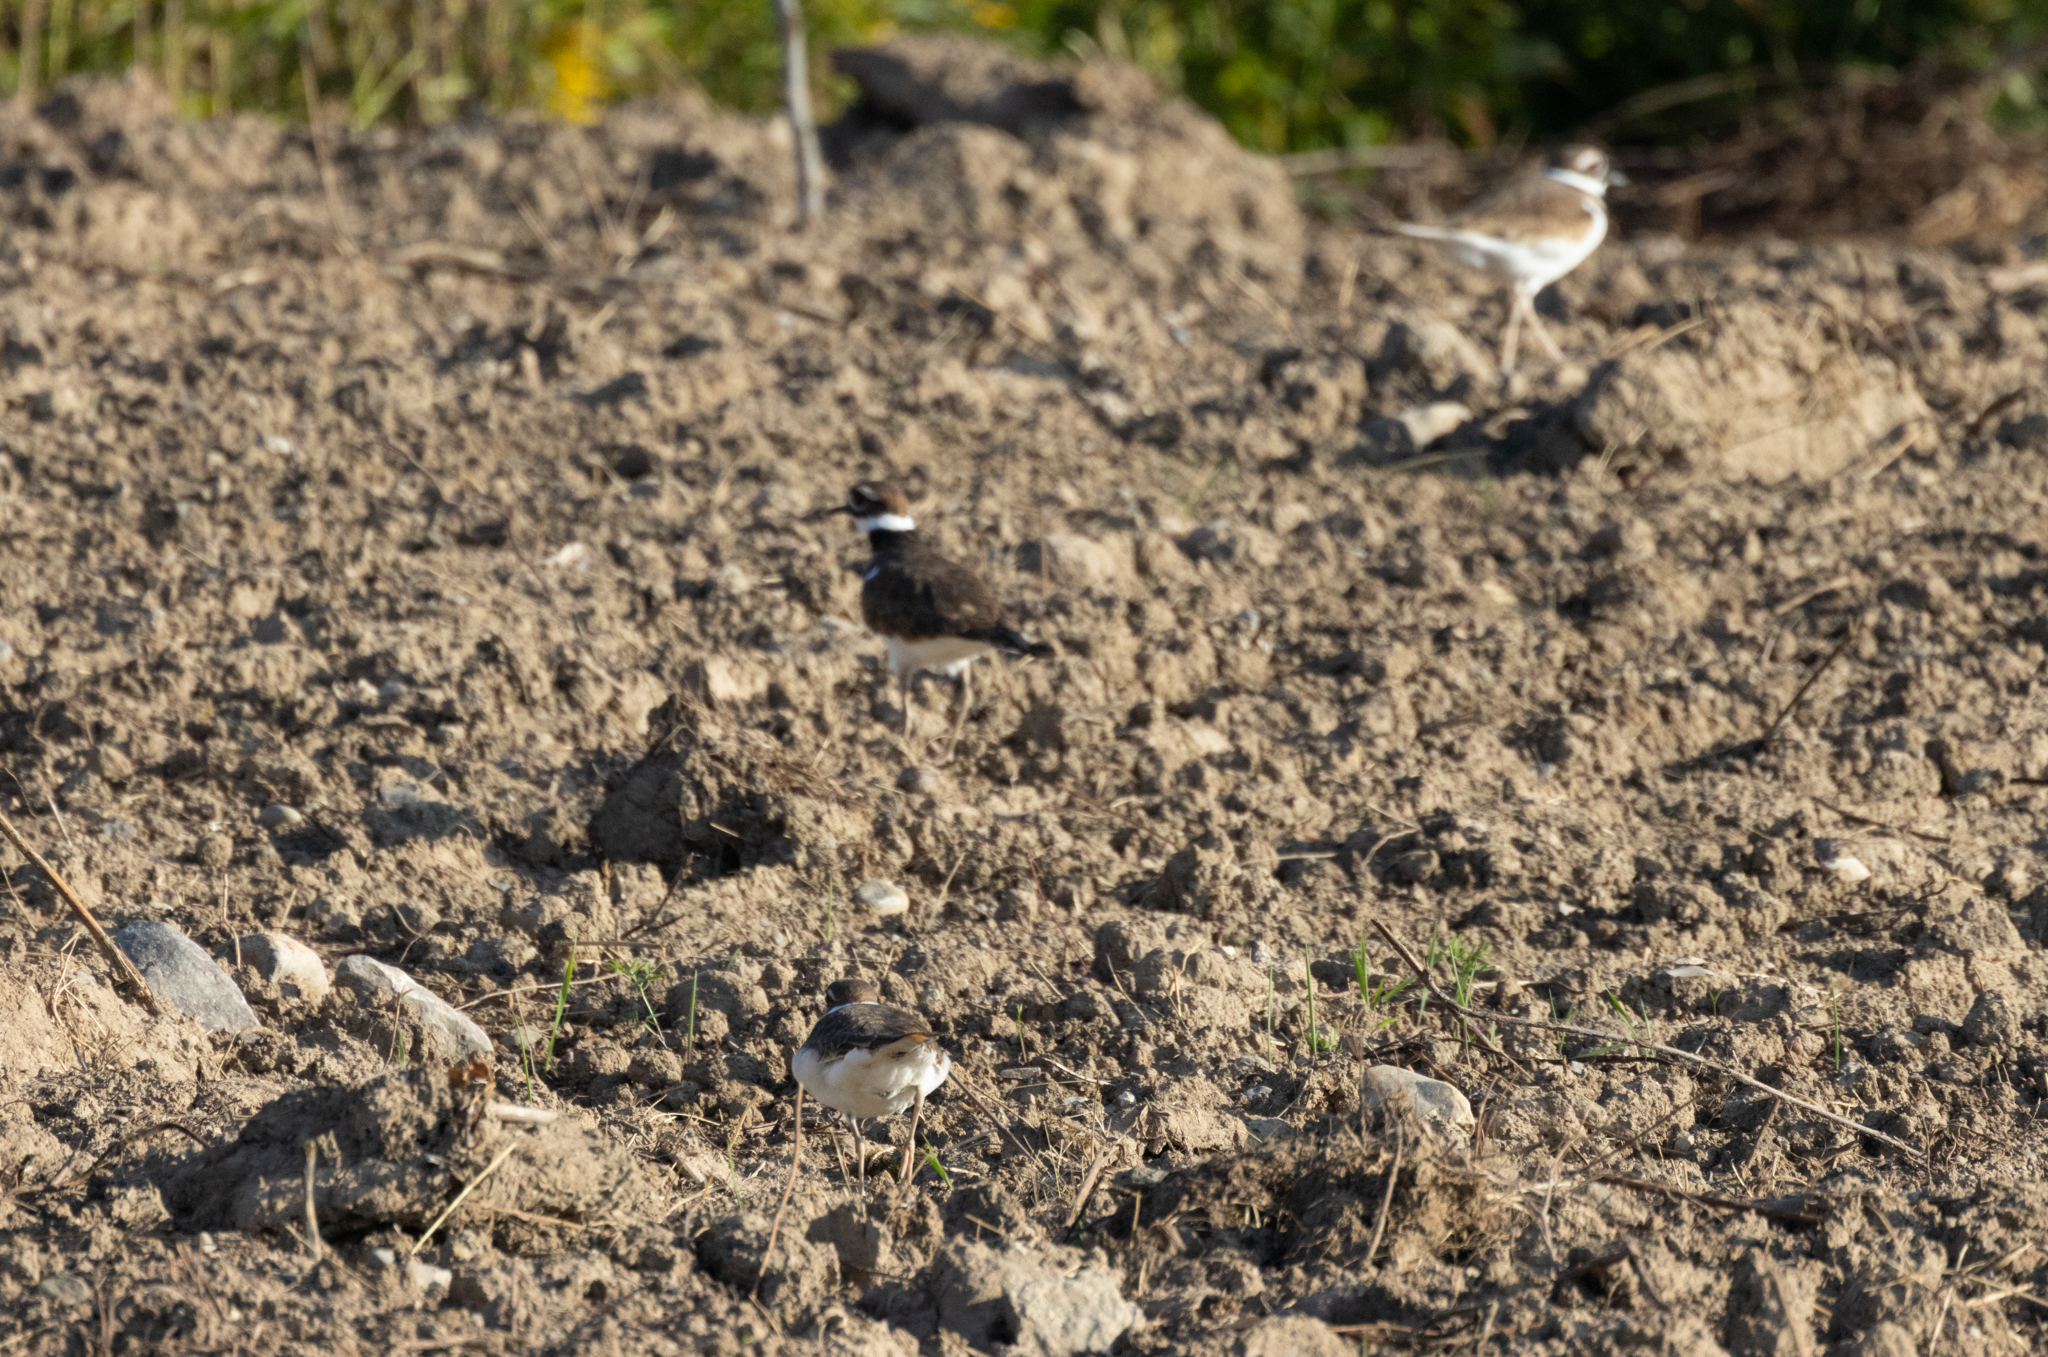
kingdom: Animalia
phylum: Chordata
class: Aves
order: Charadriiformes
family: Charadriidae
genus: Charadrius
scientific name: Charadrius vociferus
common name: Killdeer
